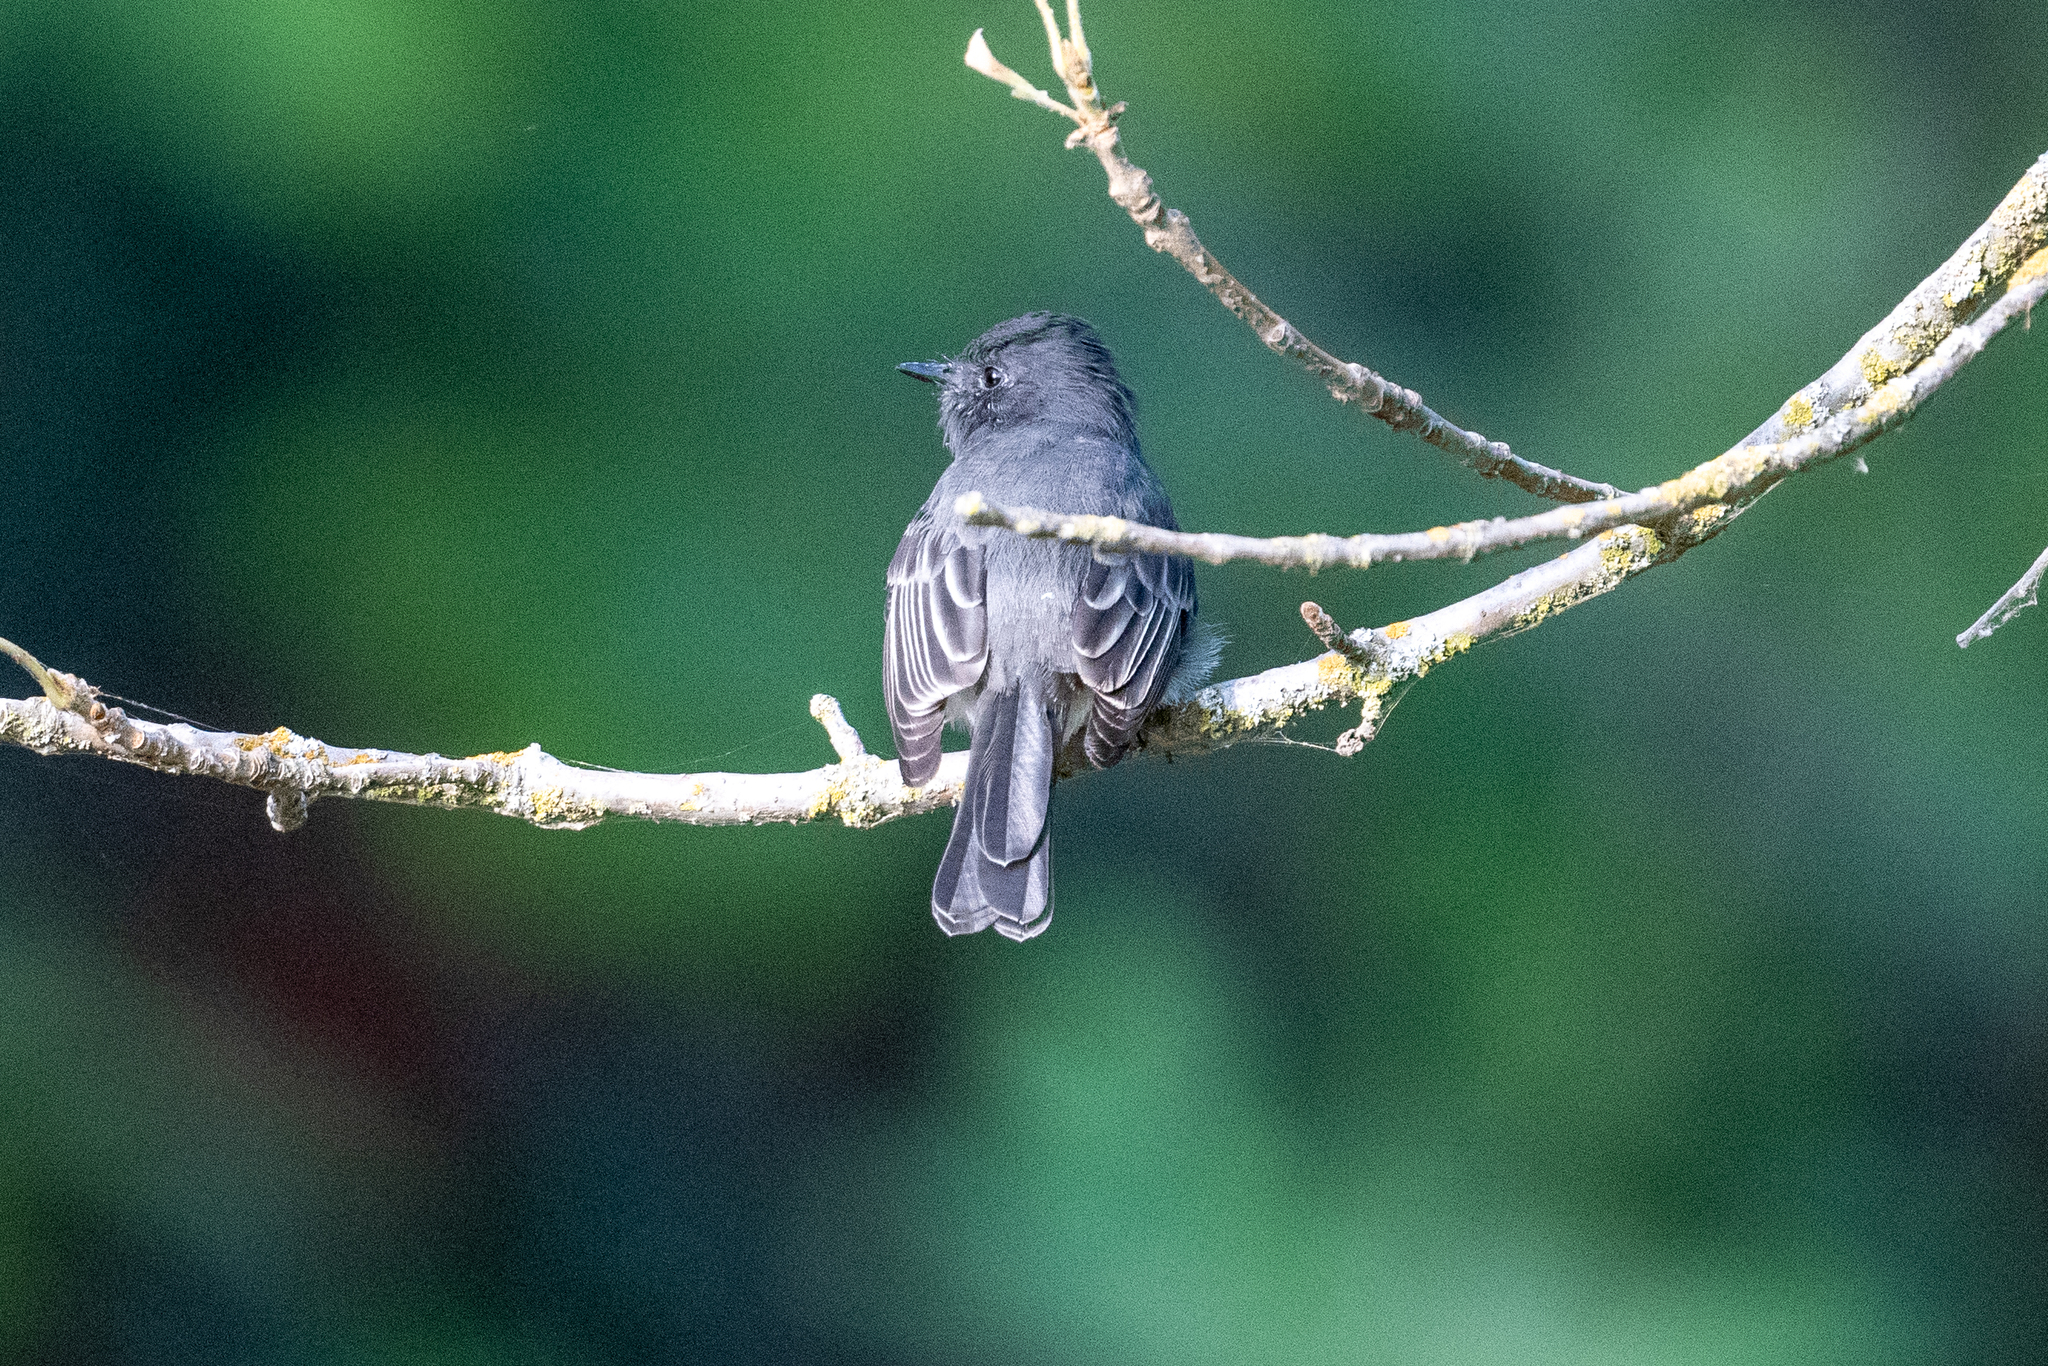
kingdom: Animalia
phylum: Chordata
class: Aves
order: Passeriformes
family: Tyrannidae
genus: Sayornis
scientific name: Sayornis nigricans
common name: Black phoebe
